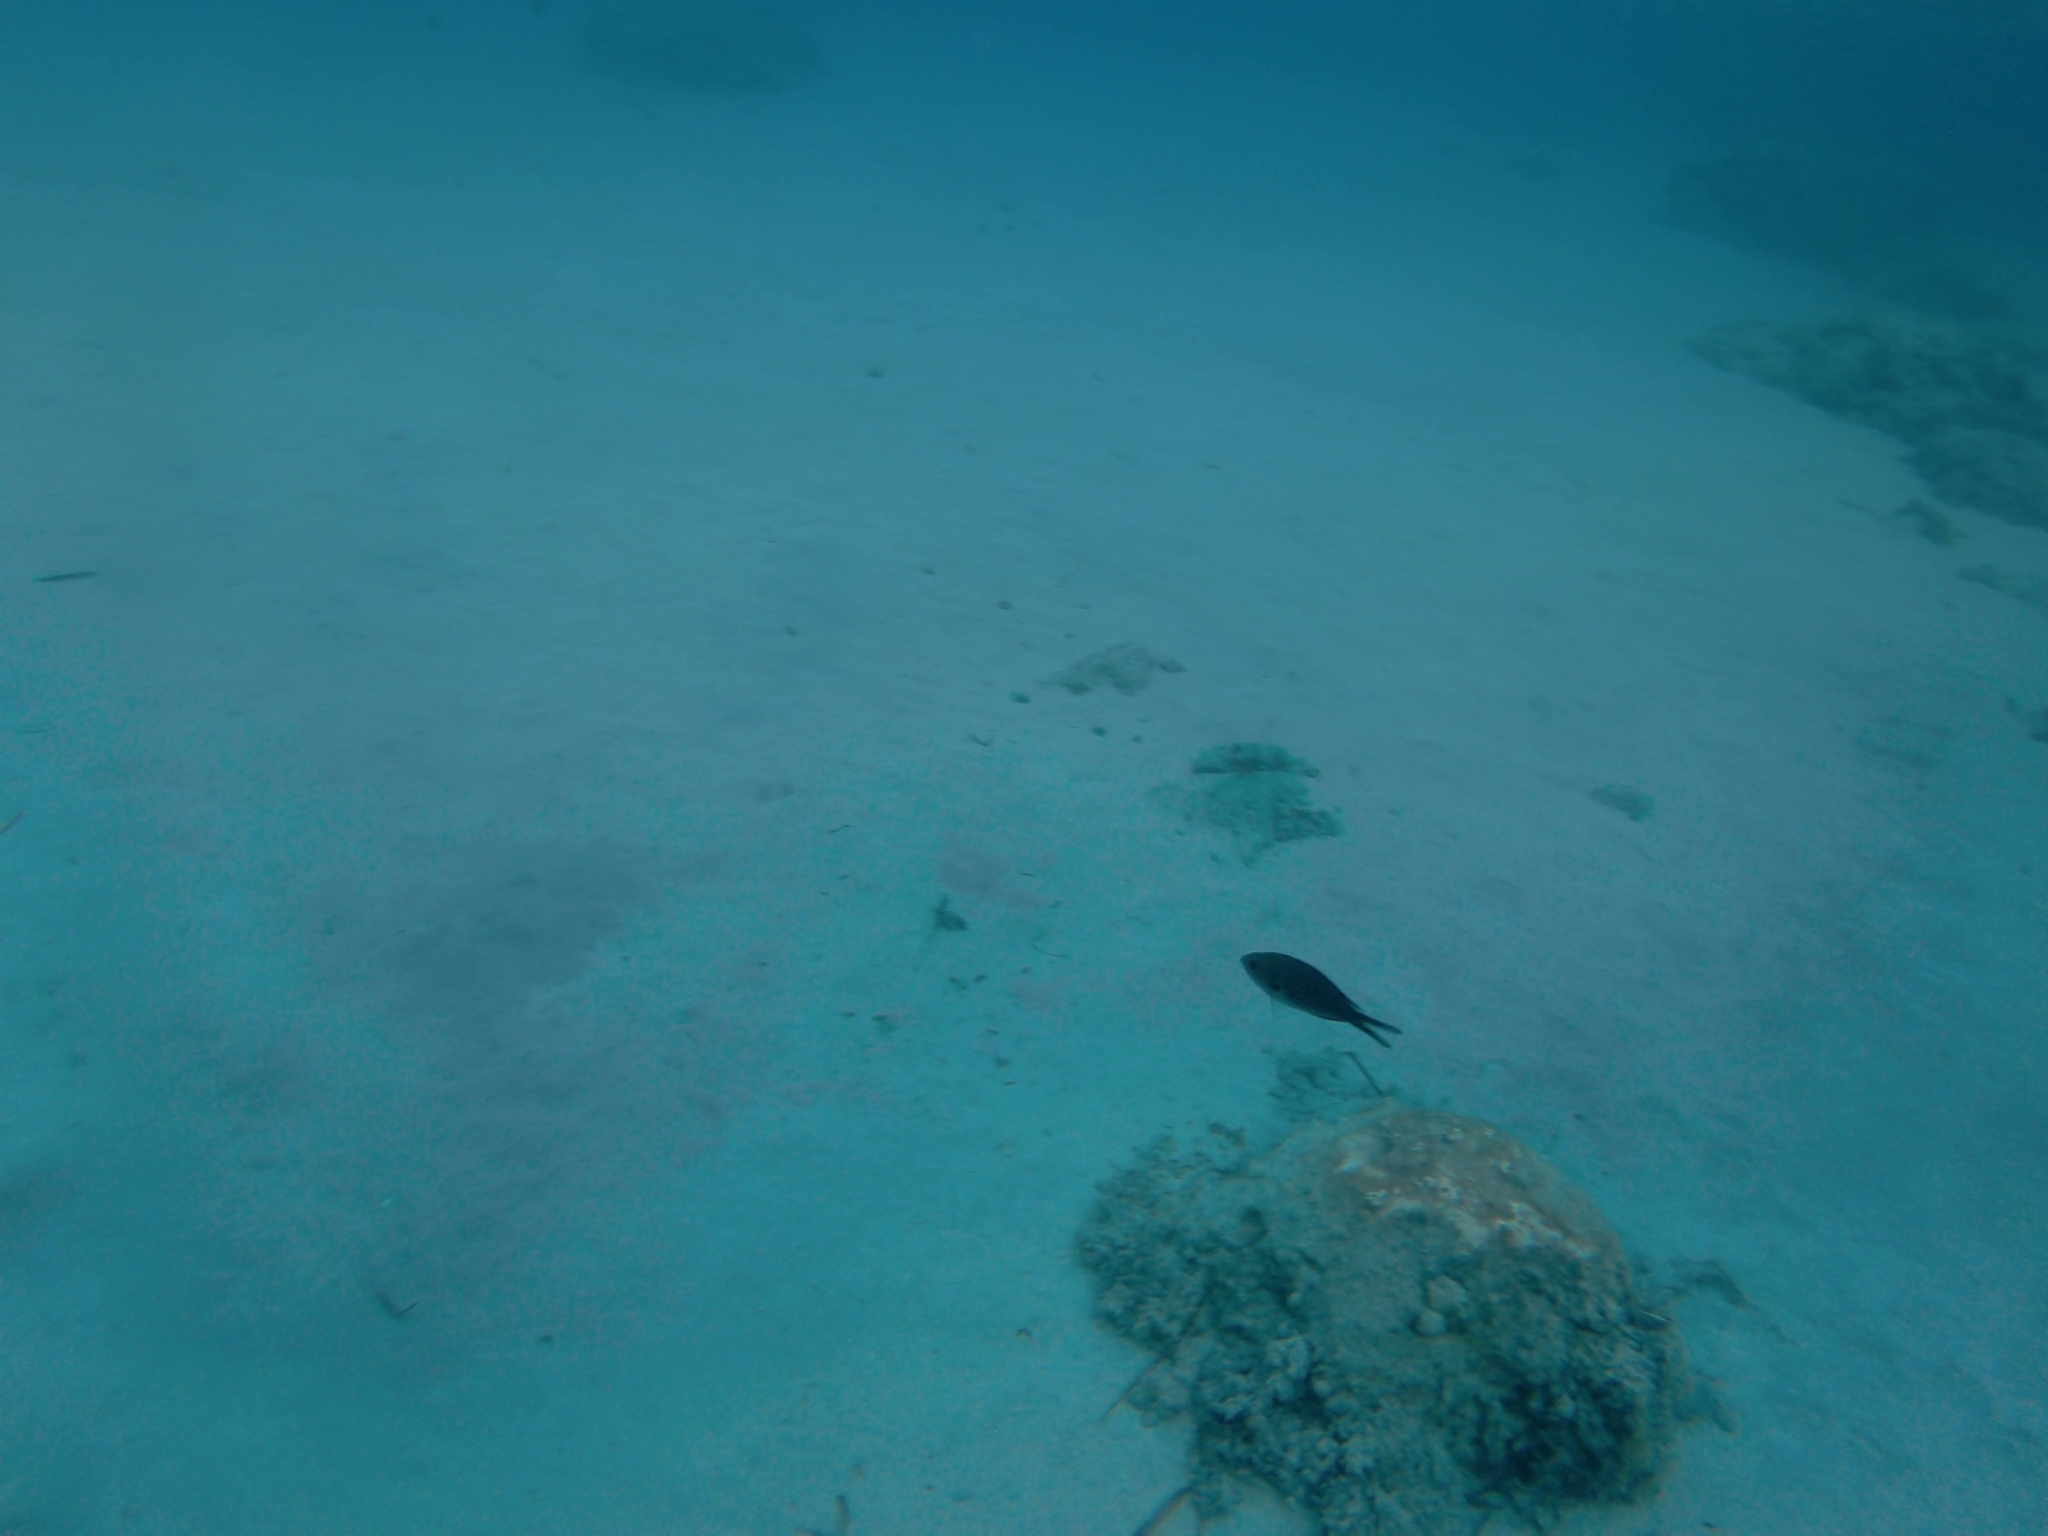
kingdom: Animalia
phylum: Chordata
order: Perciformes
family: Pomacentridae
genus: Chromis
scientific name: Chromis chromis
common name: Damselfish
